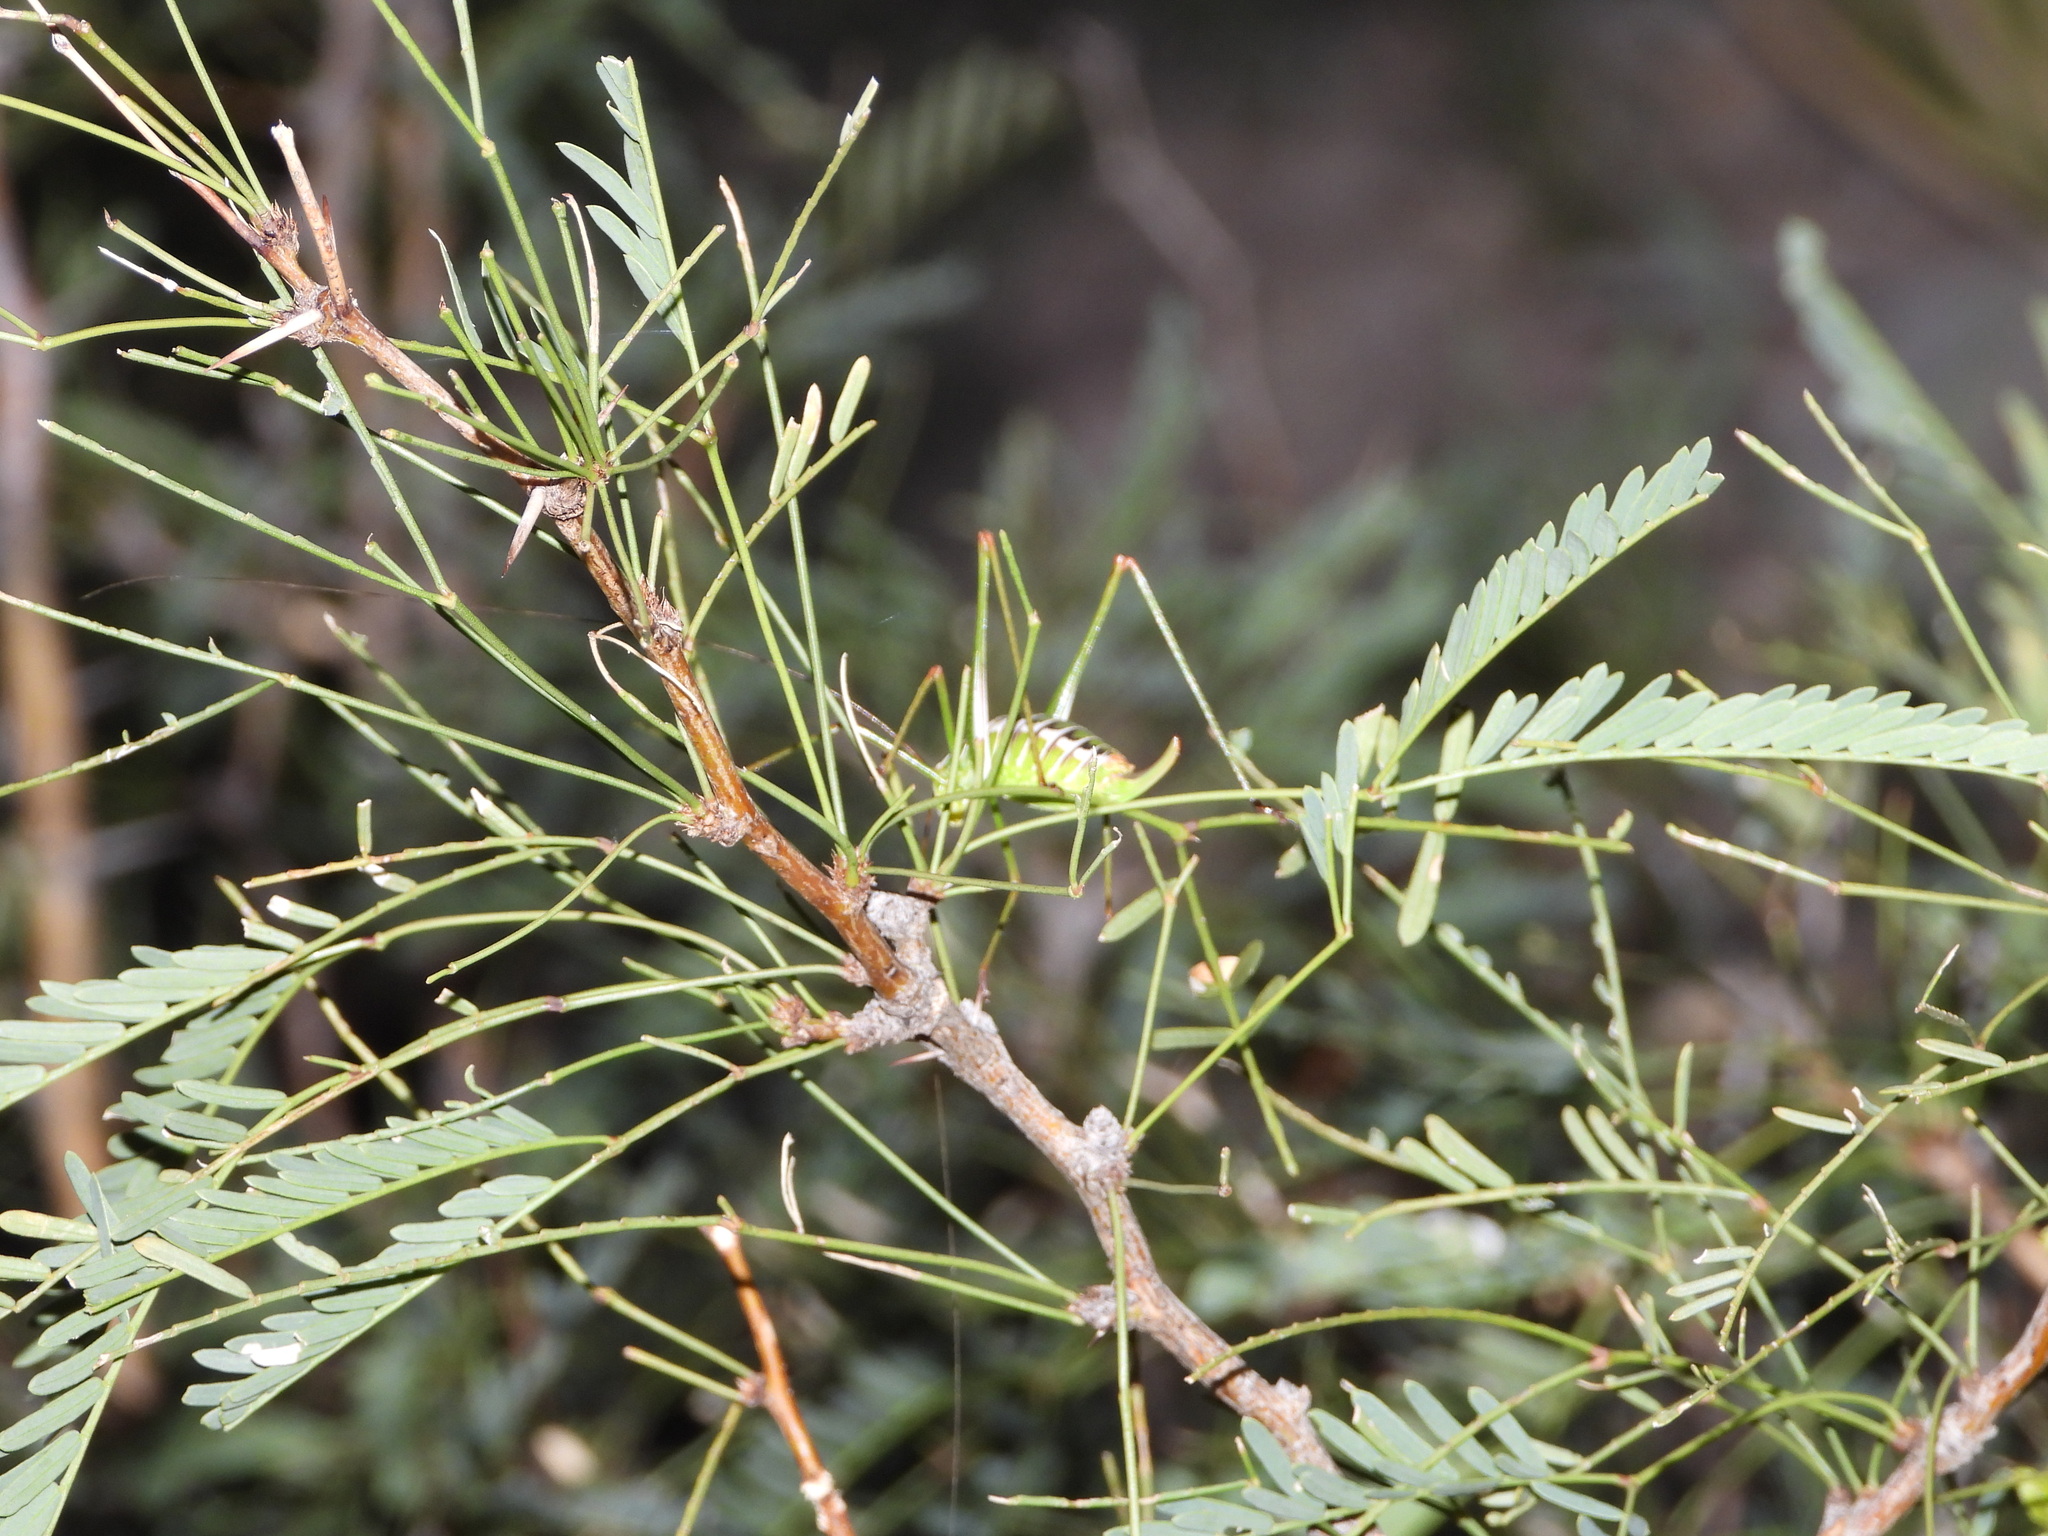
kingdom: Animalia
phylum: Arthropoda
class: Insecta
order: Orthoptera
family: Tettigoniidae
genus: Obolopteryx
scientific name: Obolopteryx brevihastata
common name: Common short-winged katydid
